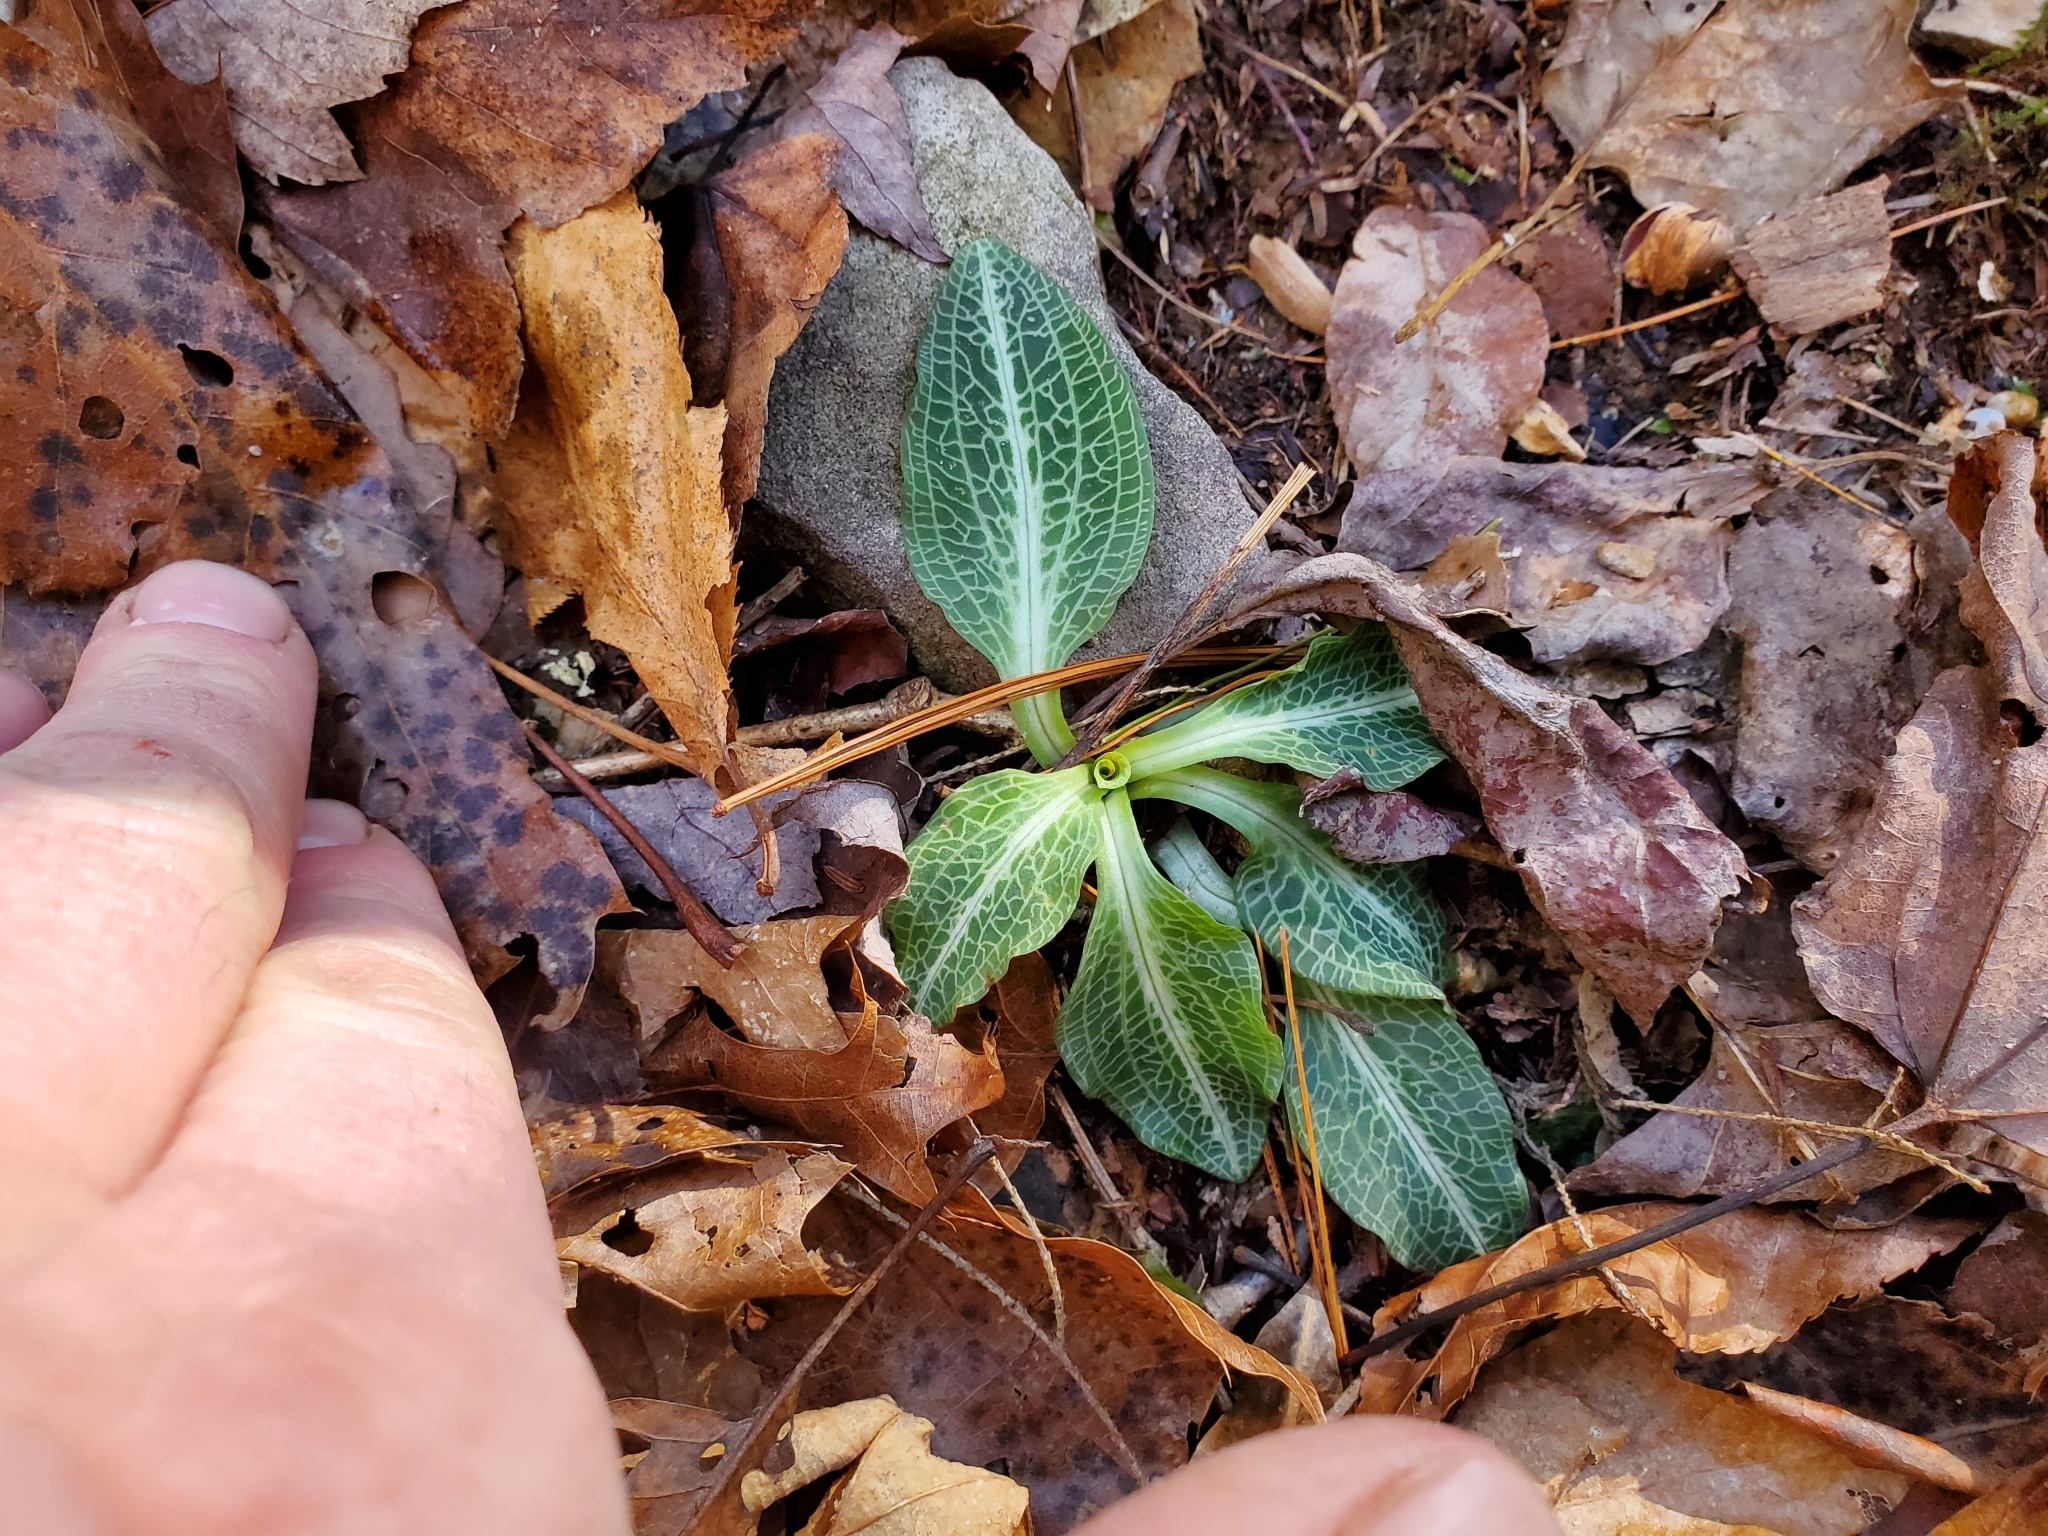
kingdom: Plantae
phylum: Tracheophyta
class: Liliopsida
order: Asparagales
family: Orchidaceae
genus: Goodyera
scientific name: Goodyera pubescens
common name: Downy rattlesnake-plantain
